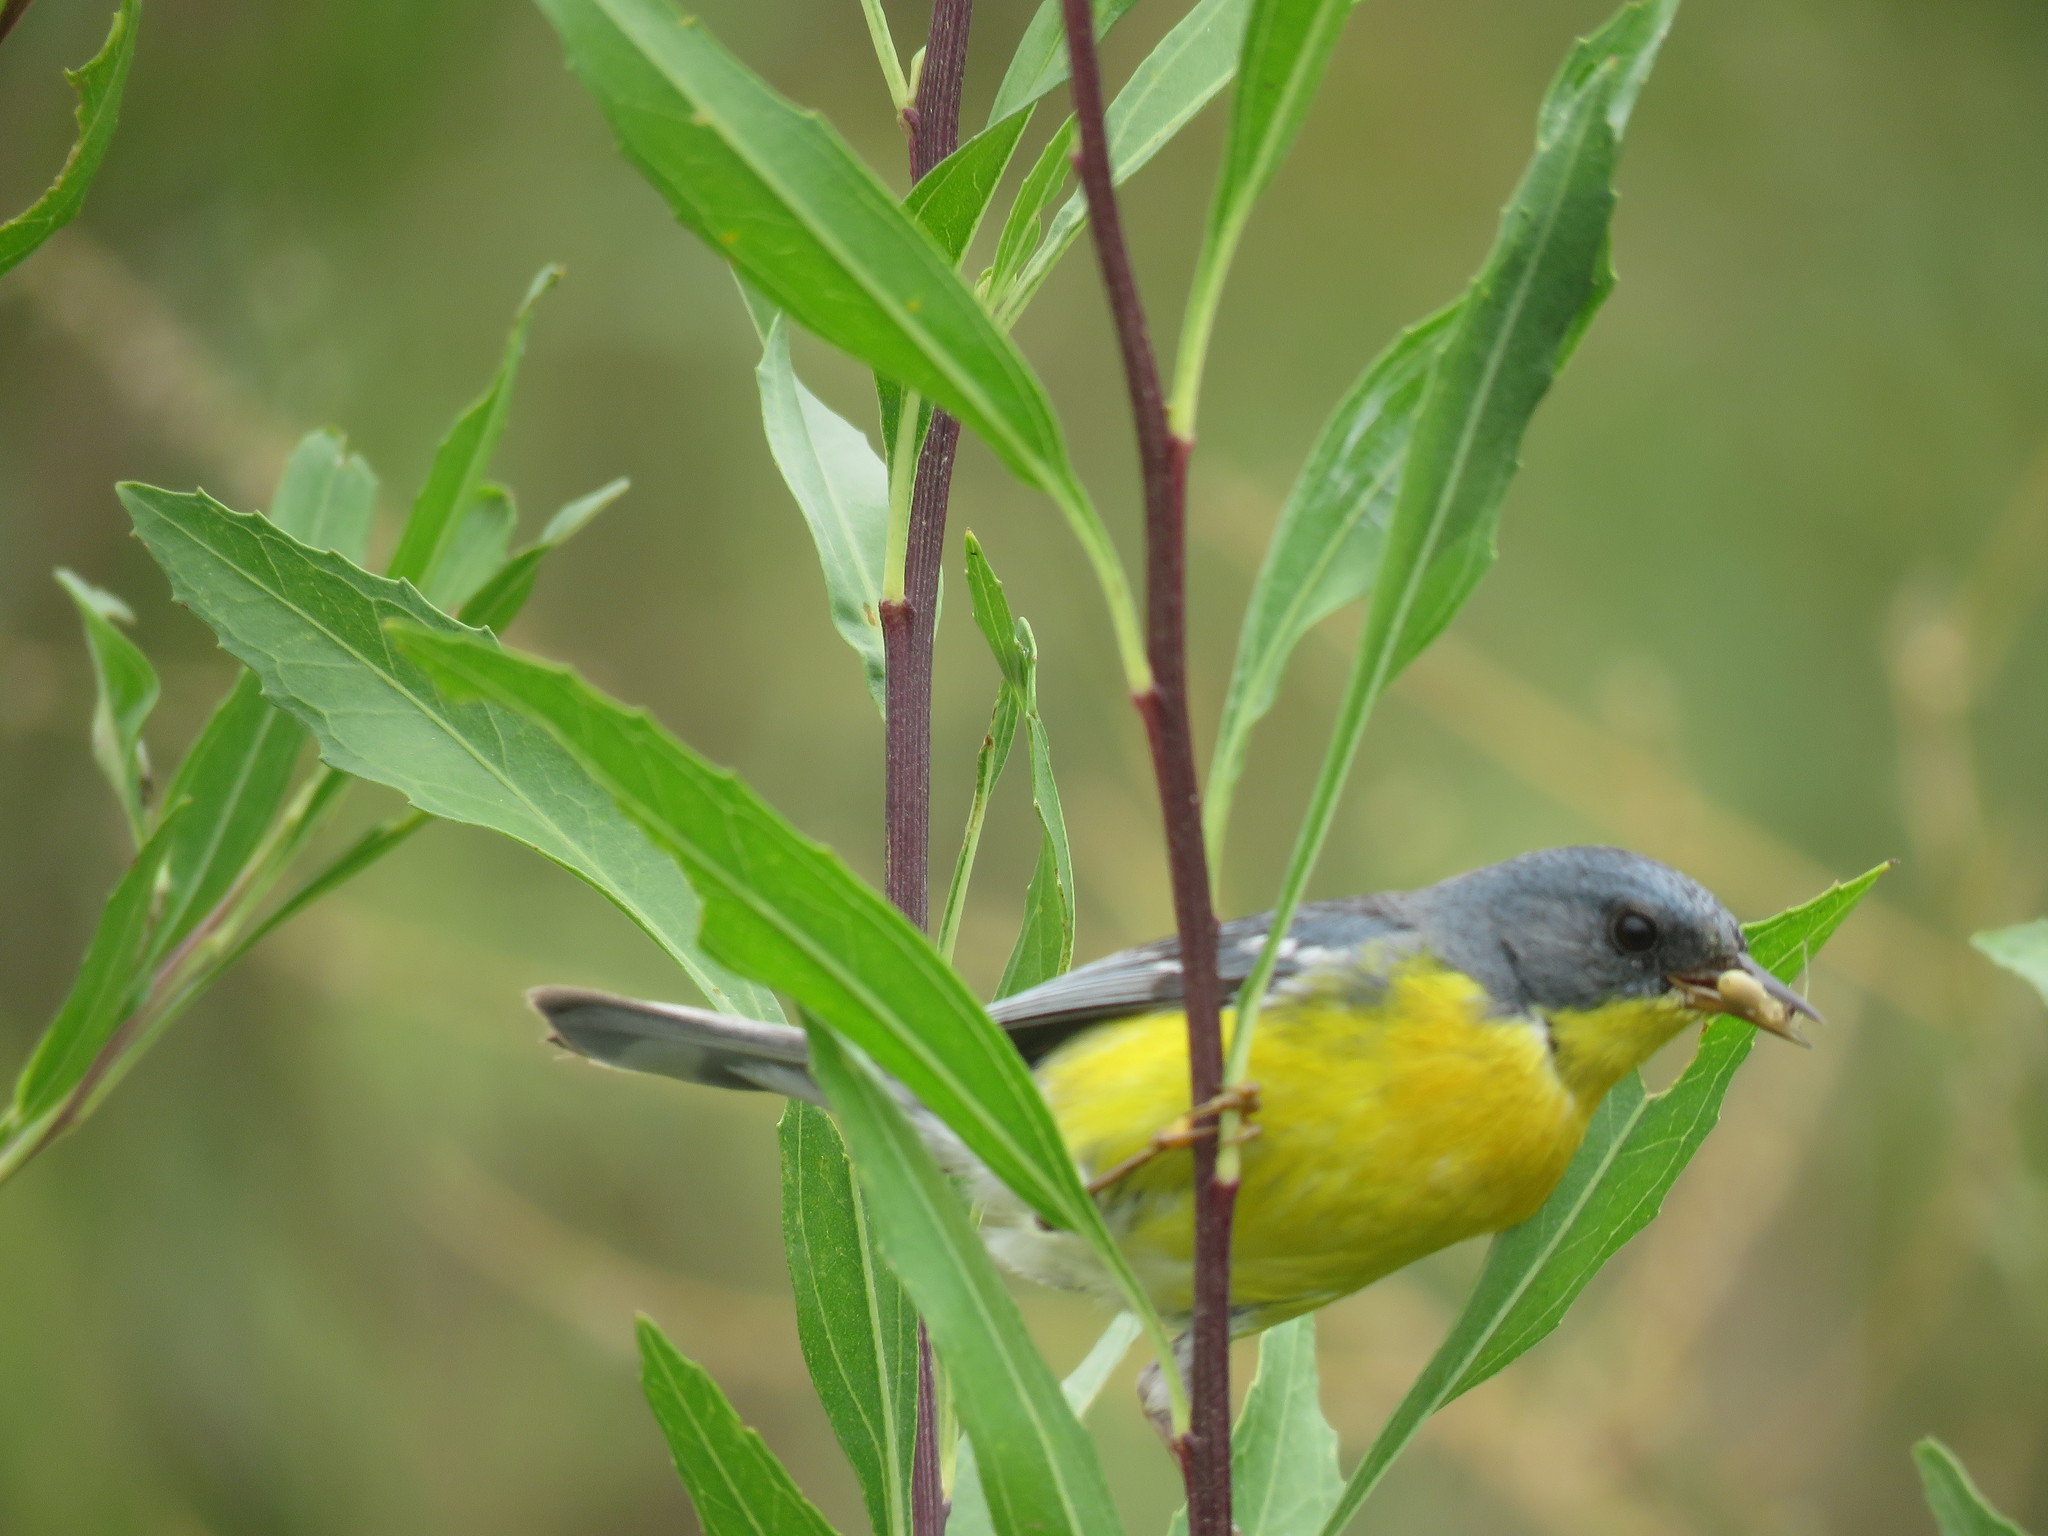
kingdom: Animalia
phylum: Chordata
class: Aves
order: Passeriformes
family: Parulidae
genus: Setophaga
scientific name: Setophaga pitiayumi
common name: Tropical parula
